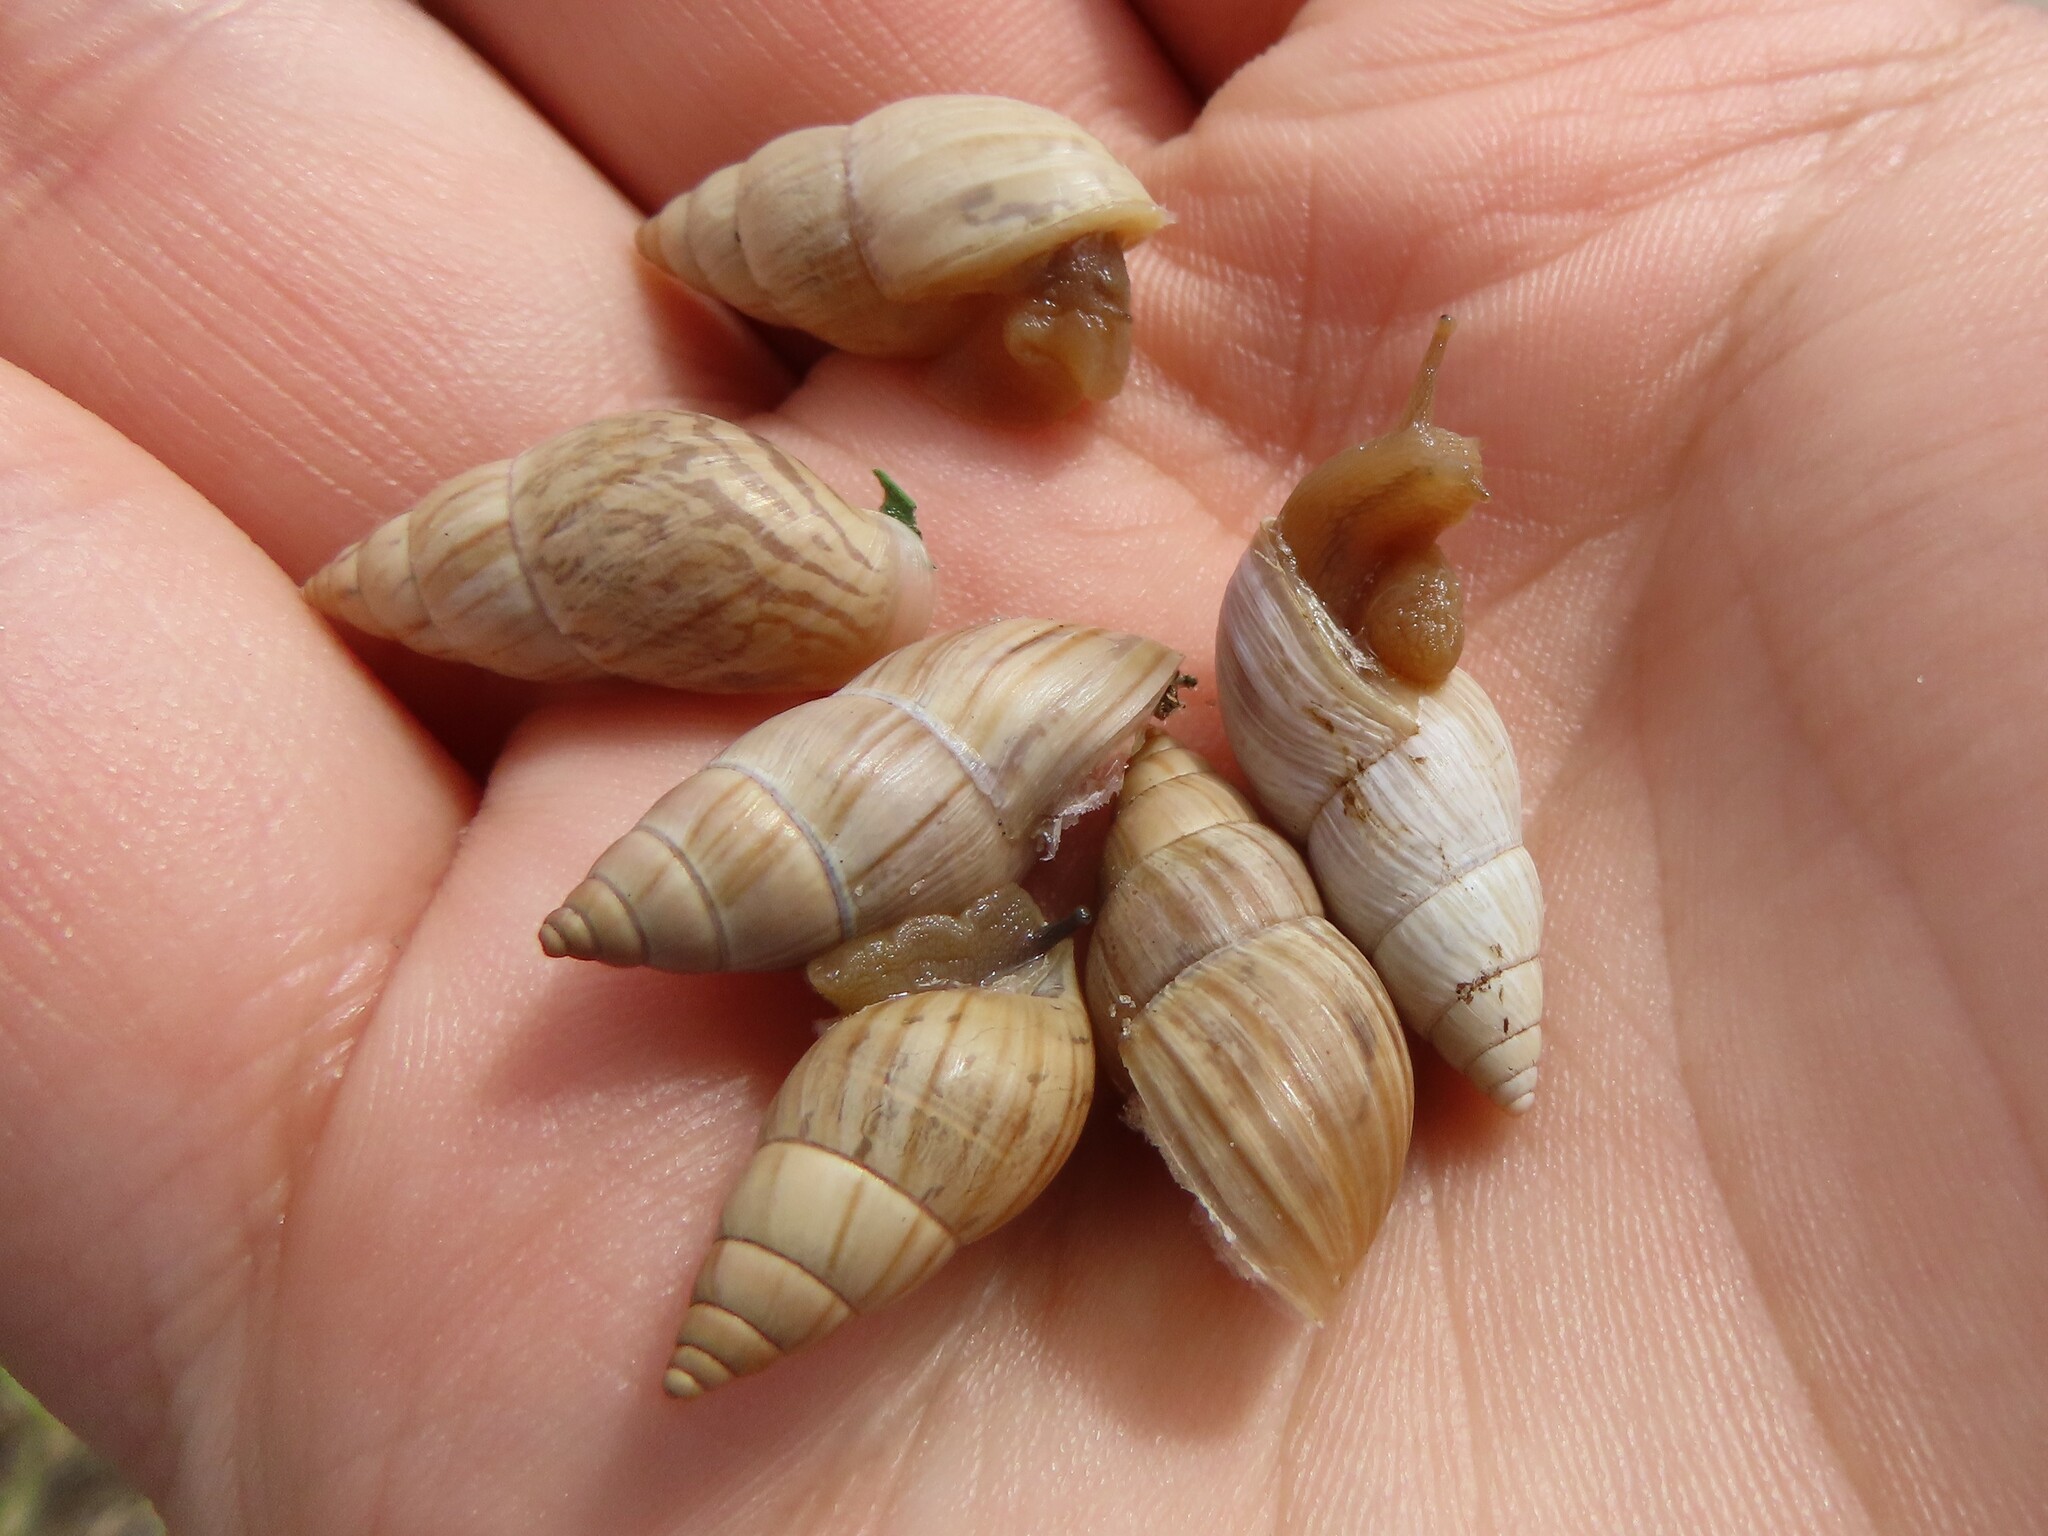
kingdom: Animalia
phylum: Mollusca
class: Gastropoda
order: Stylommatophora
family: Bulimulidae
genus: Bulimulus
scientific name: Bulimulus bonariensis
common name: Snail
